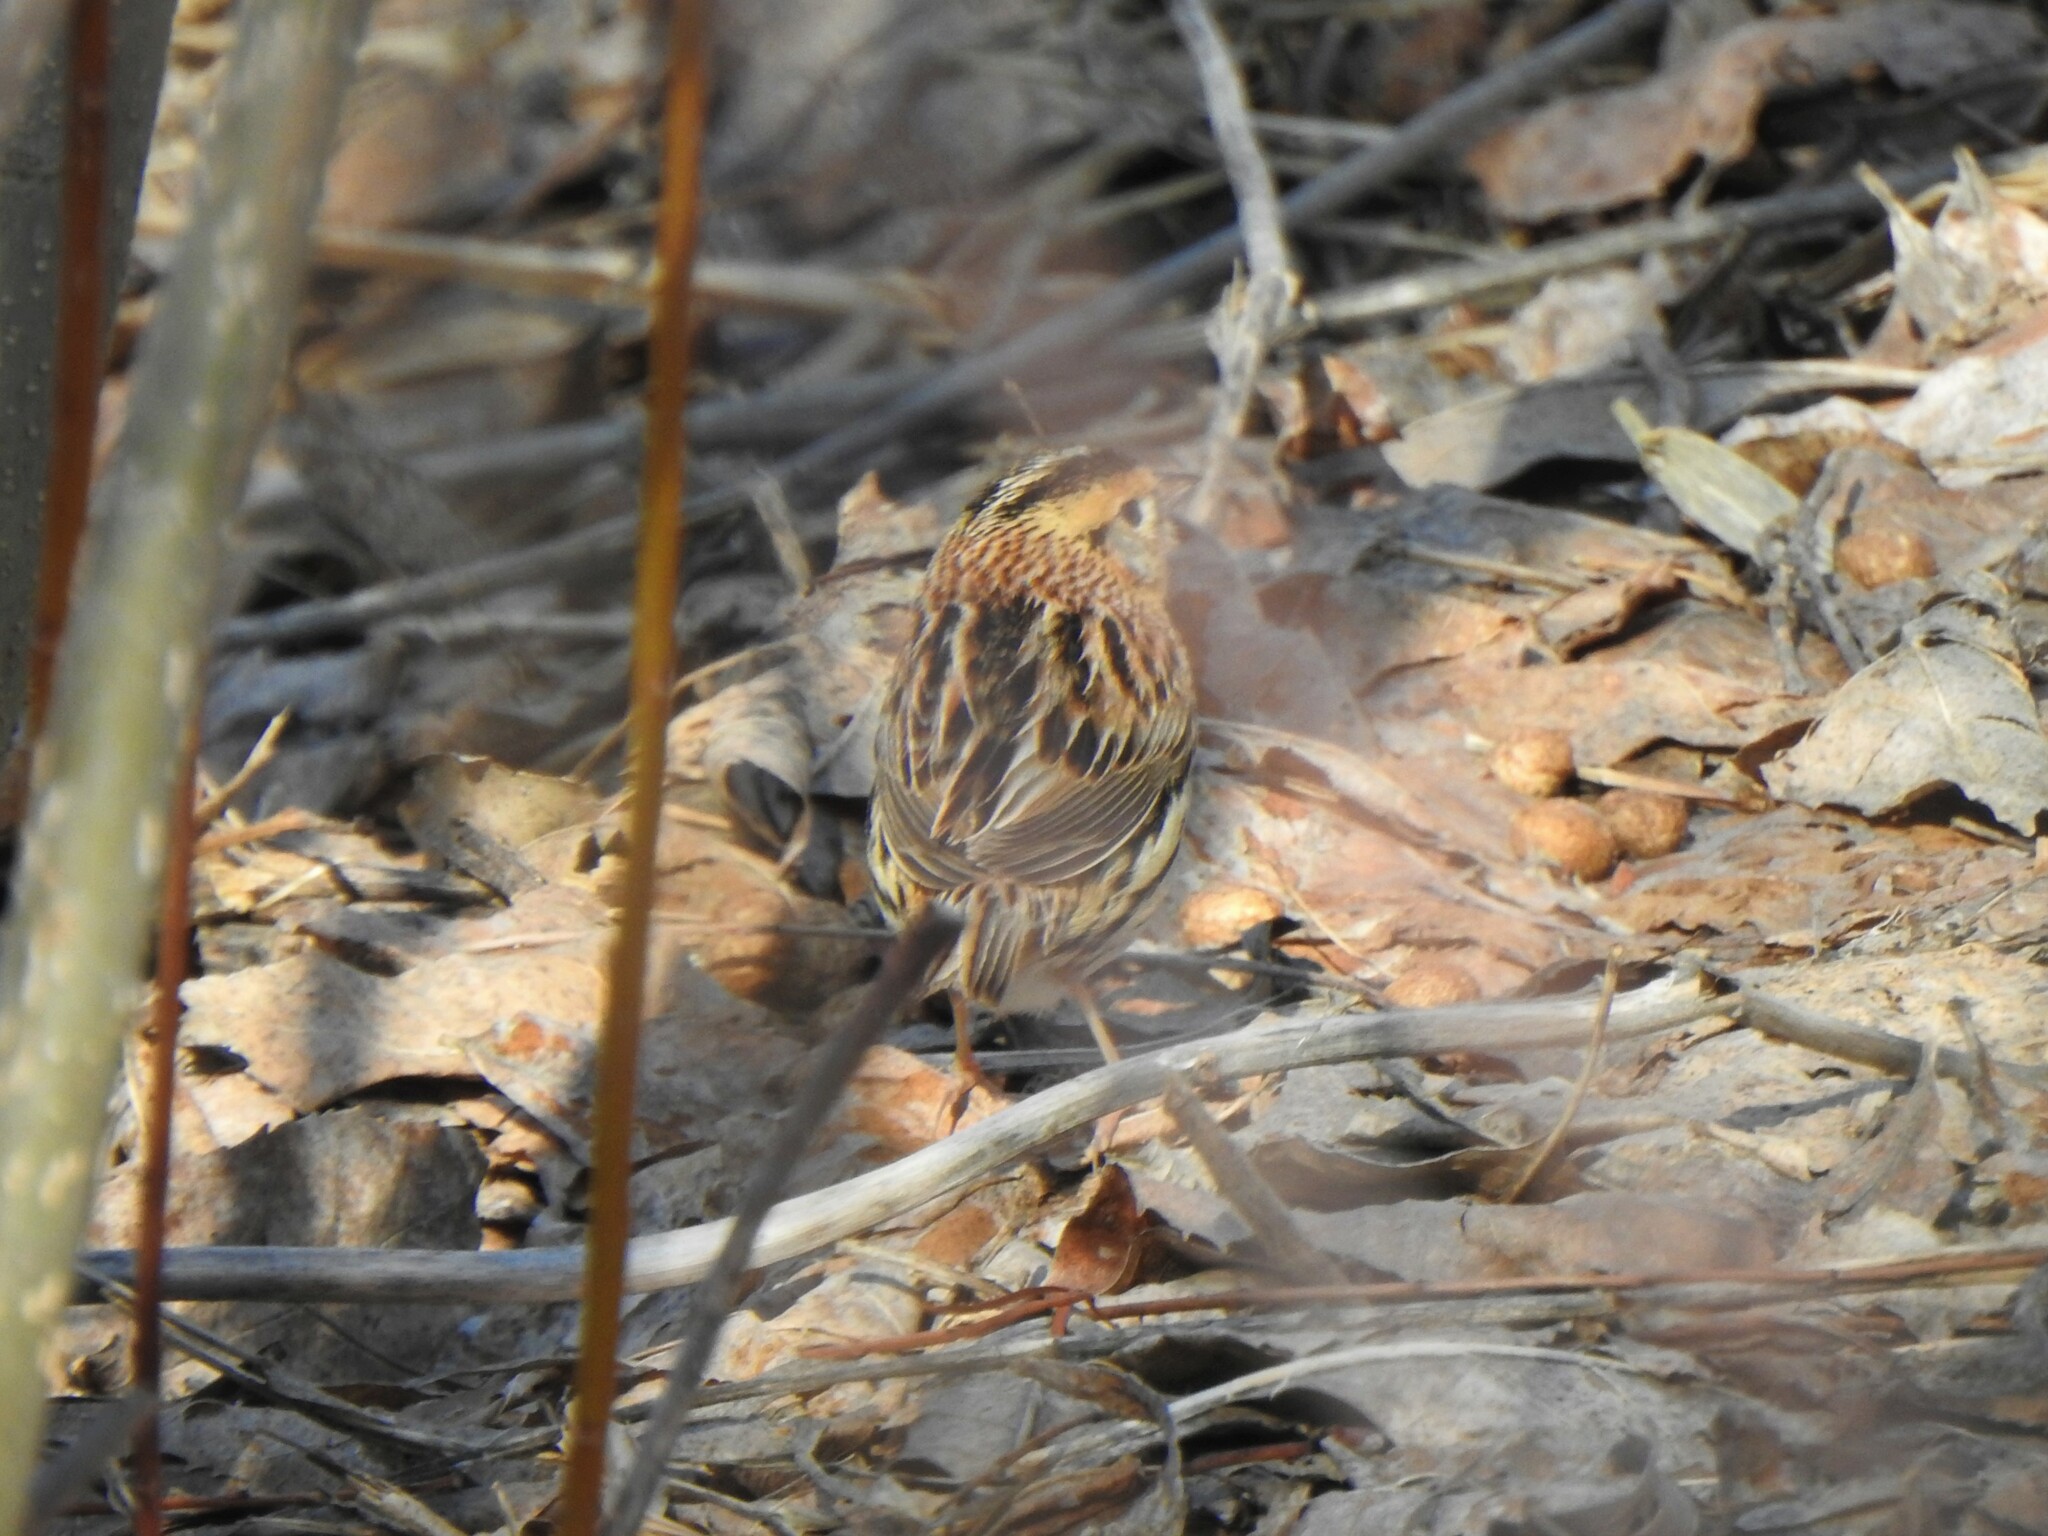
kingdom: Animalia
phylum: Chordata
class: Aves
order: Passeriformes
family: Passerellidae
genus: Ammospiza
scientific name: Ammospiza leconteii
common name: Le conte's sparrow
